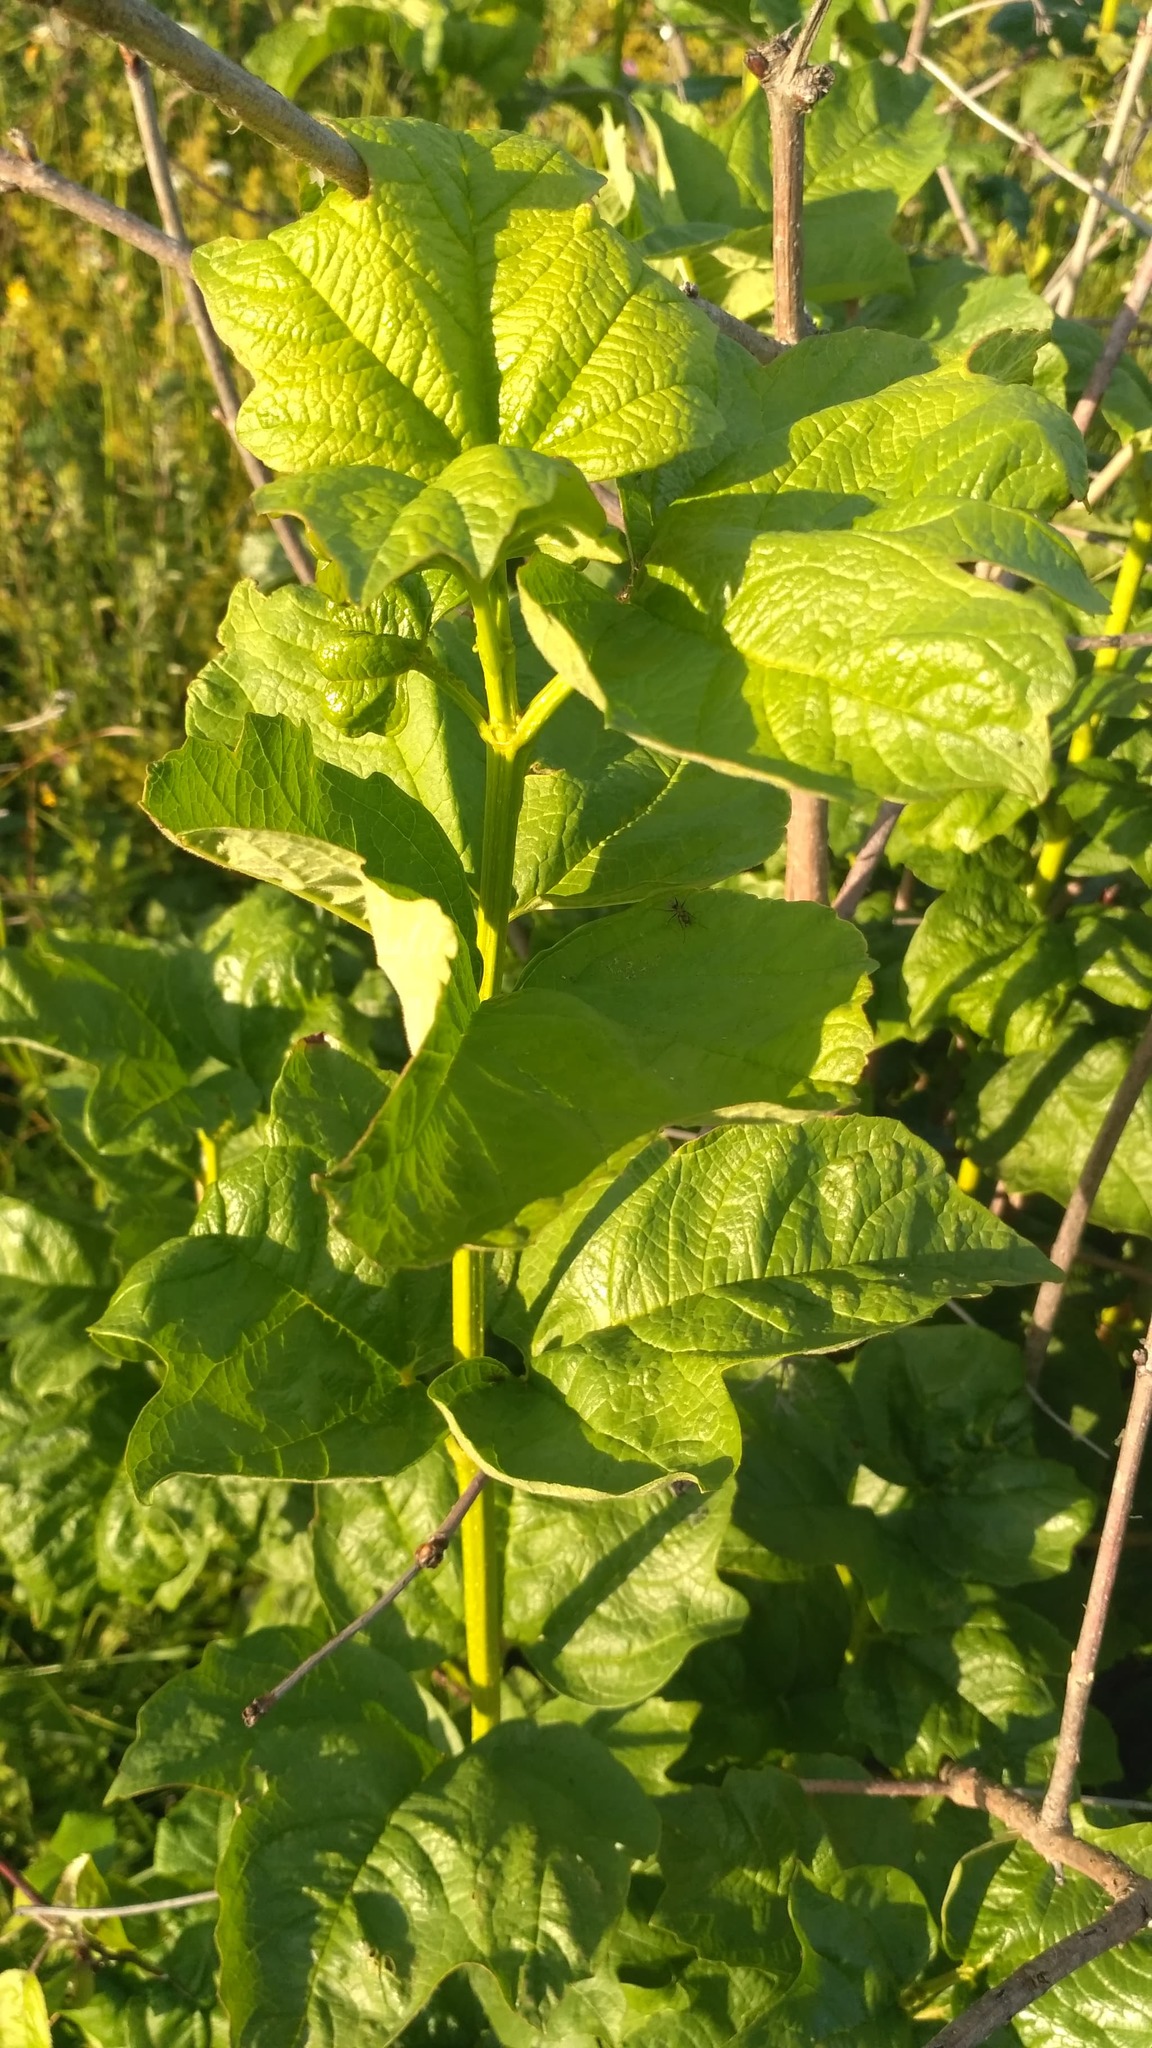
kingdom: Plantae
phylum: Tracheophyta
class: Magnoliopsida
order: Dipsacales
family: Viburnaceae
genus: Viburnum
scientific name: Viburnum opulus
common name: Guelder-rose
